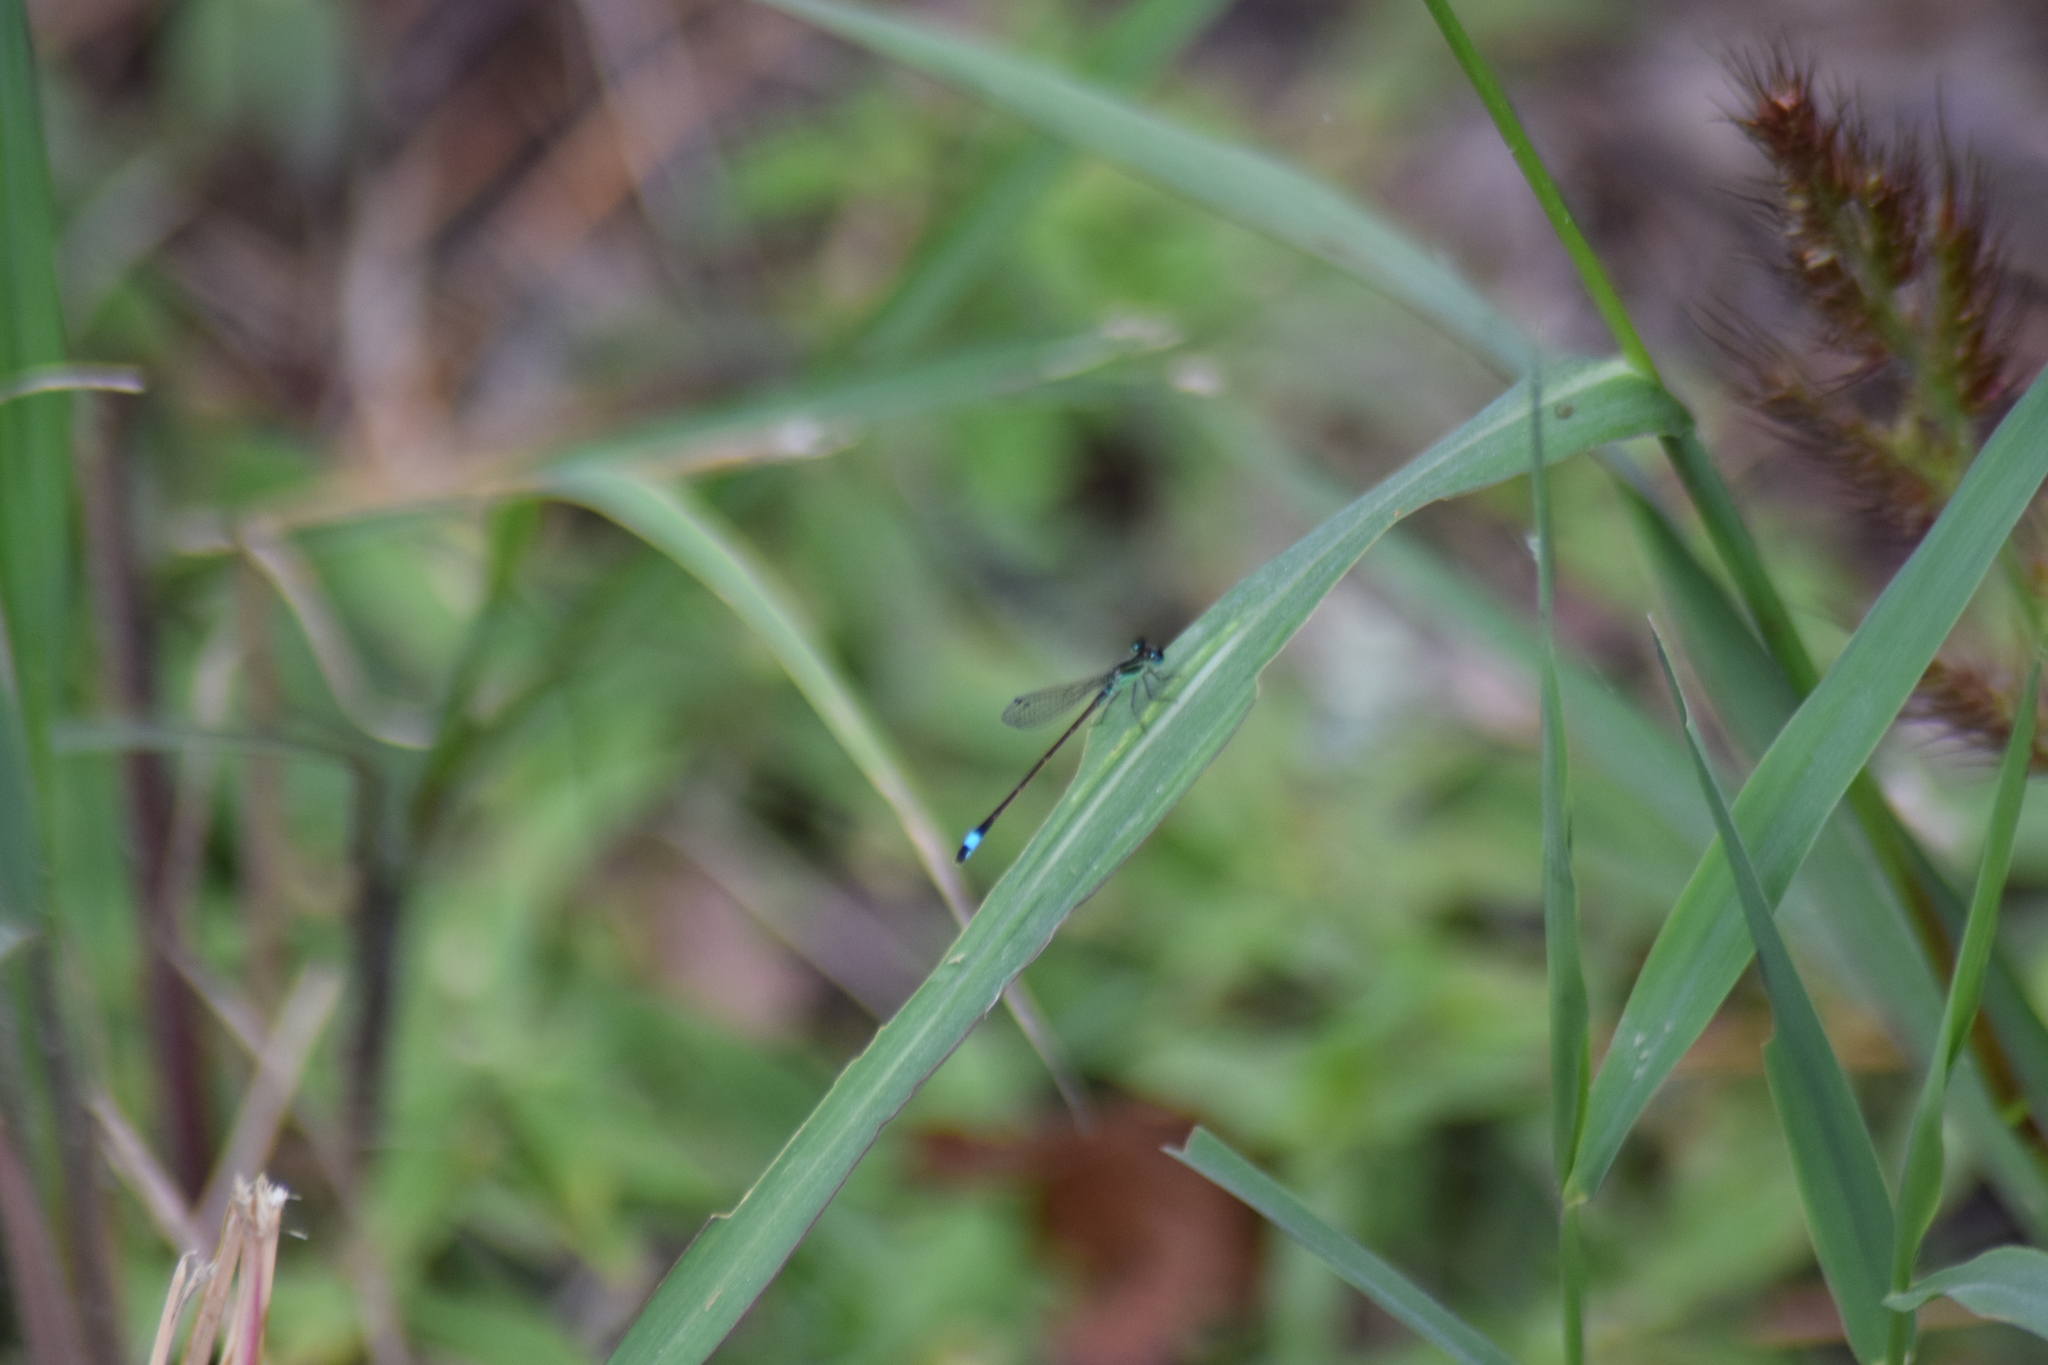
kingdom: Animalia
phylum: Arthropoda
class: Insecta
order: Odonata
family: Coenagrionidae
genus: Ischnura
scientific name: Ischnura ramburii
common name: Rambur's forktail
